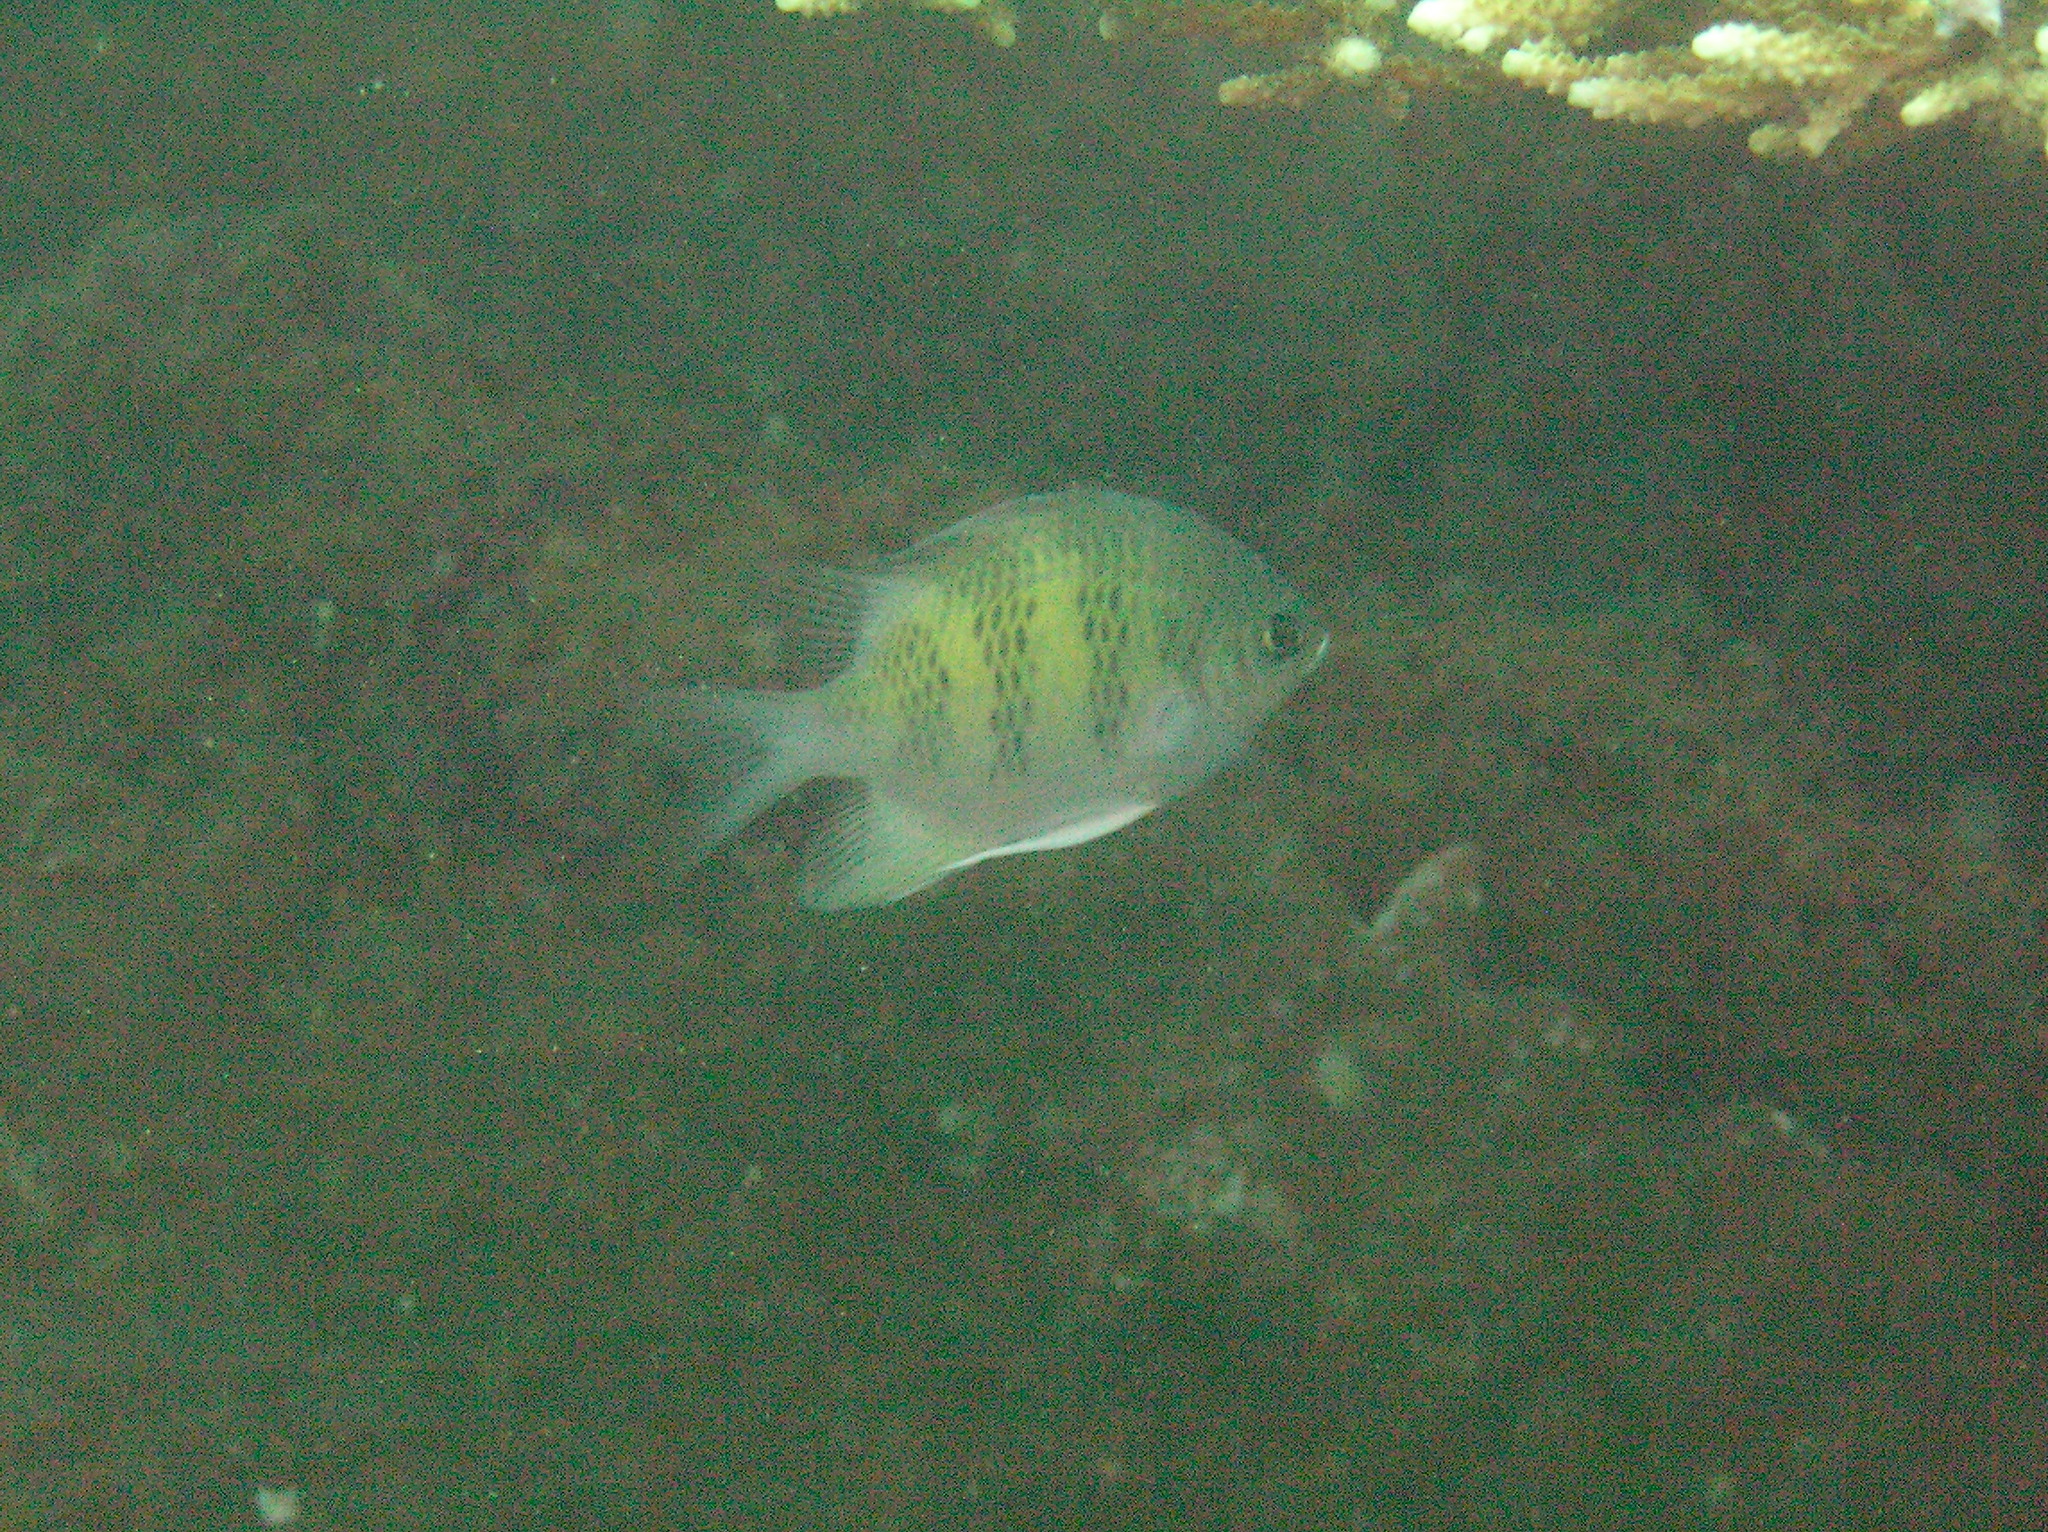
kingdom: Animalia
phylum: Chordata
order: Perciformes
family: Pomacentridae
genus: Amblyglyphidodon
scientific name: Amblyglyphidodon curacao
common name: Staghorn damsel
